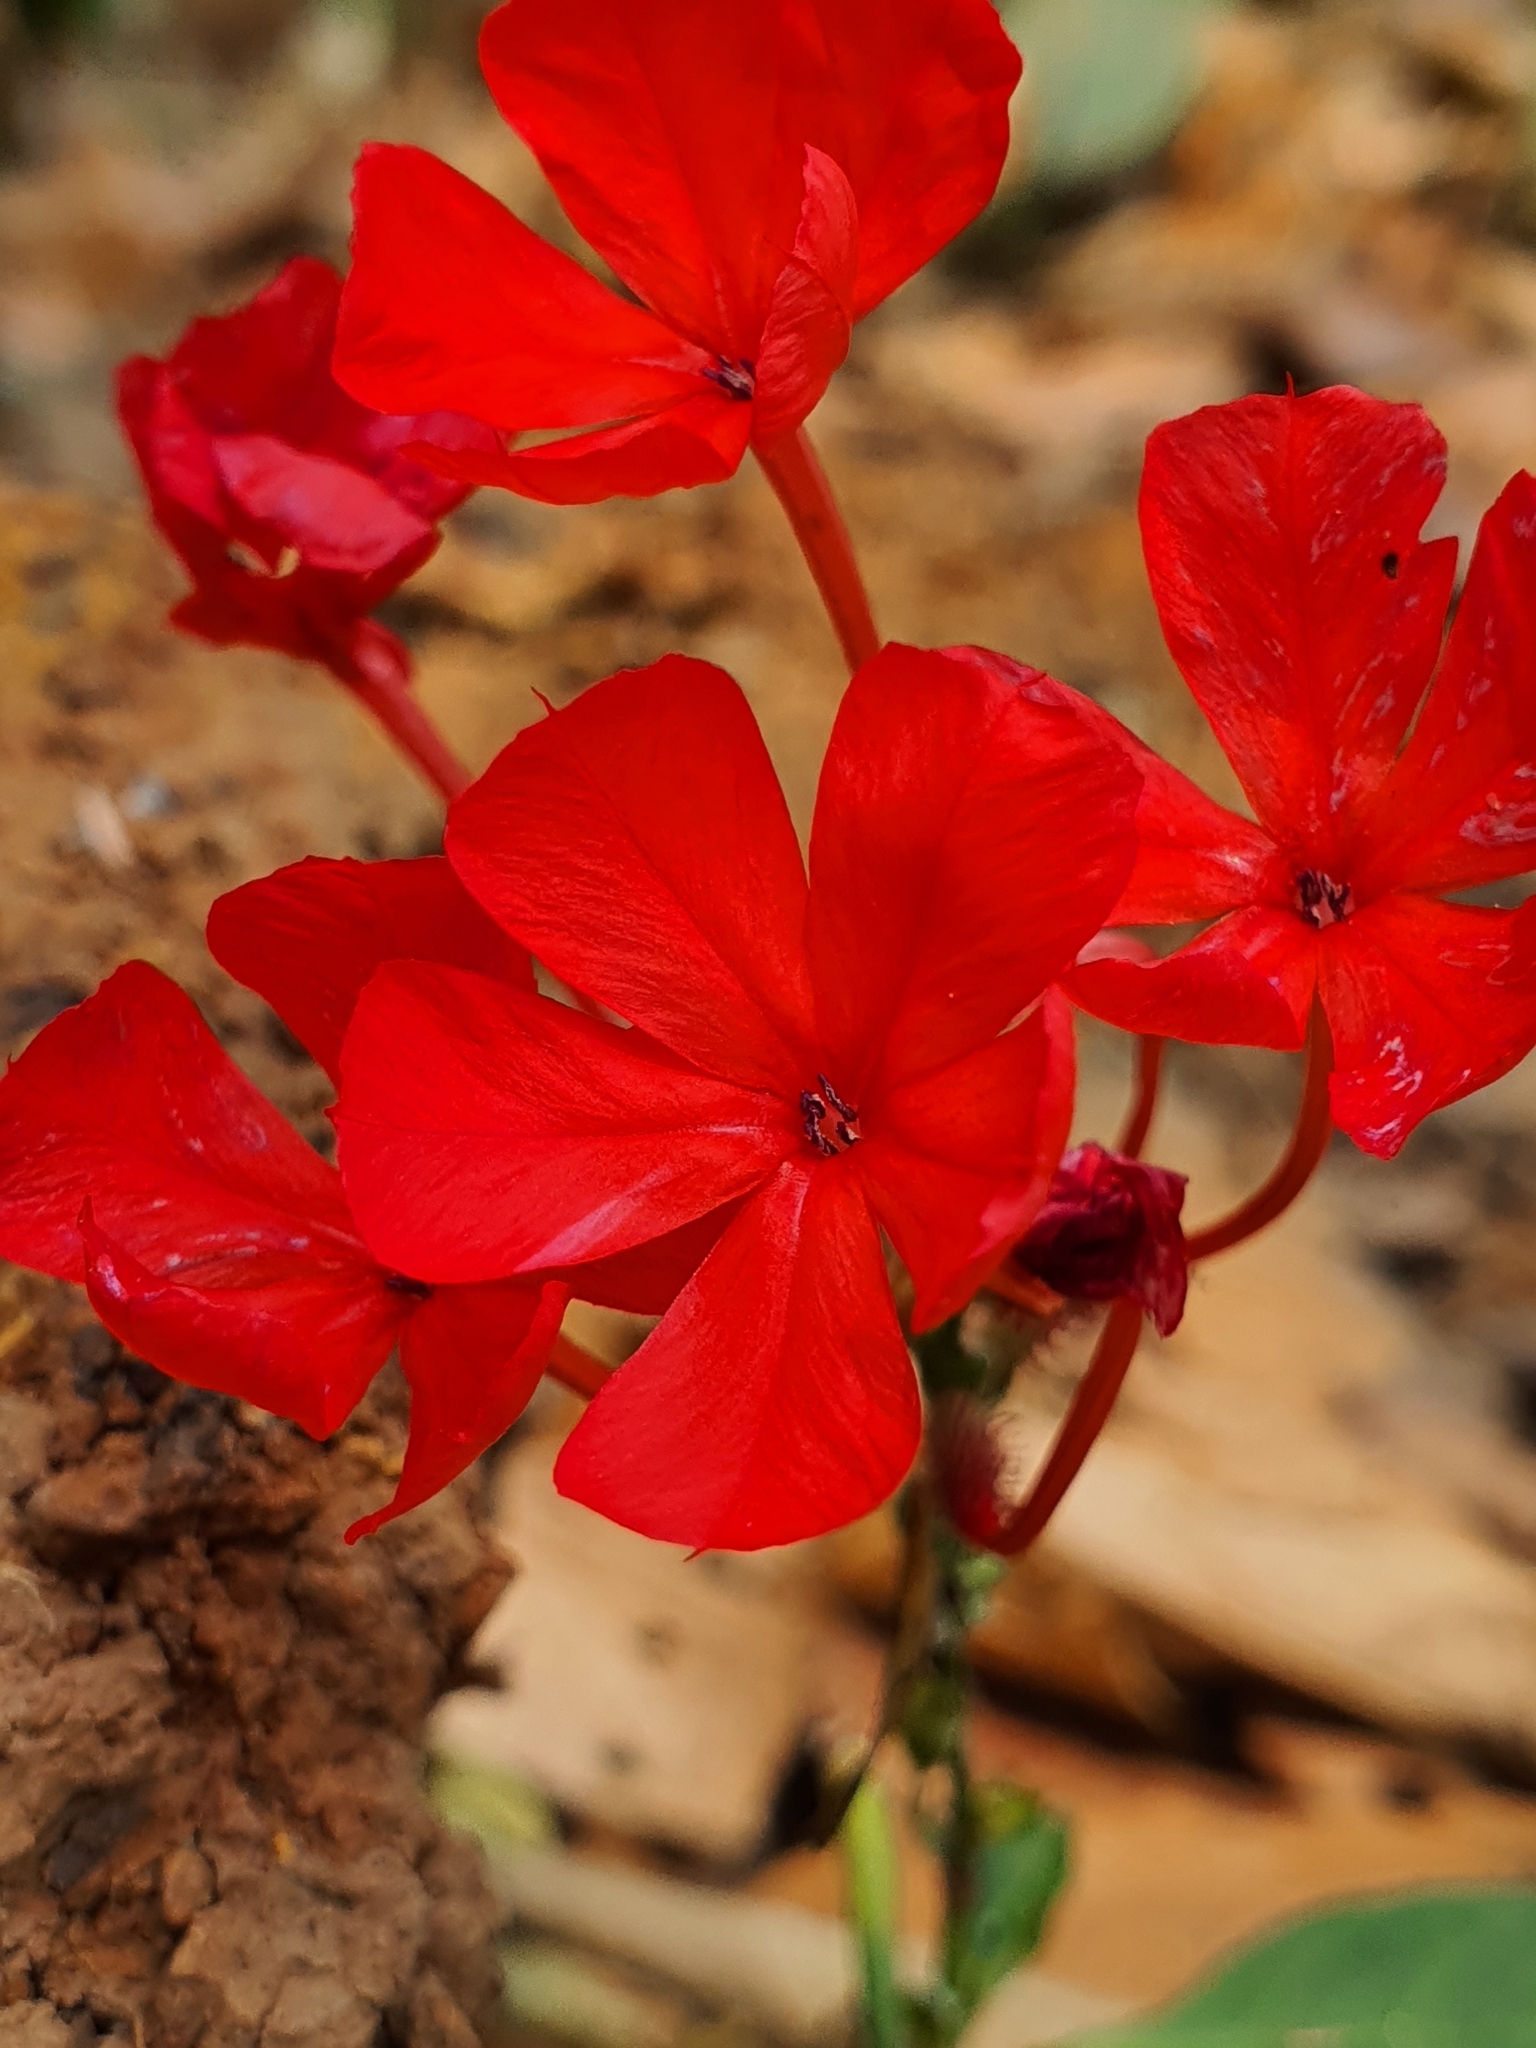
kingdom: Plantae
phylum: Tracheophyta
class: Magnoliopsida
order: Caryophyllales
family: Plumbaginaceae
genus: Plumbago
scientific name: Plumbago indica
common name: Indian leadwort
